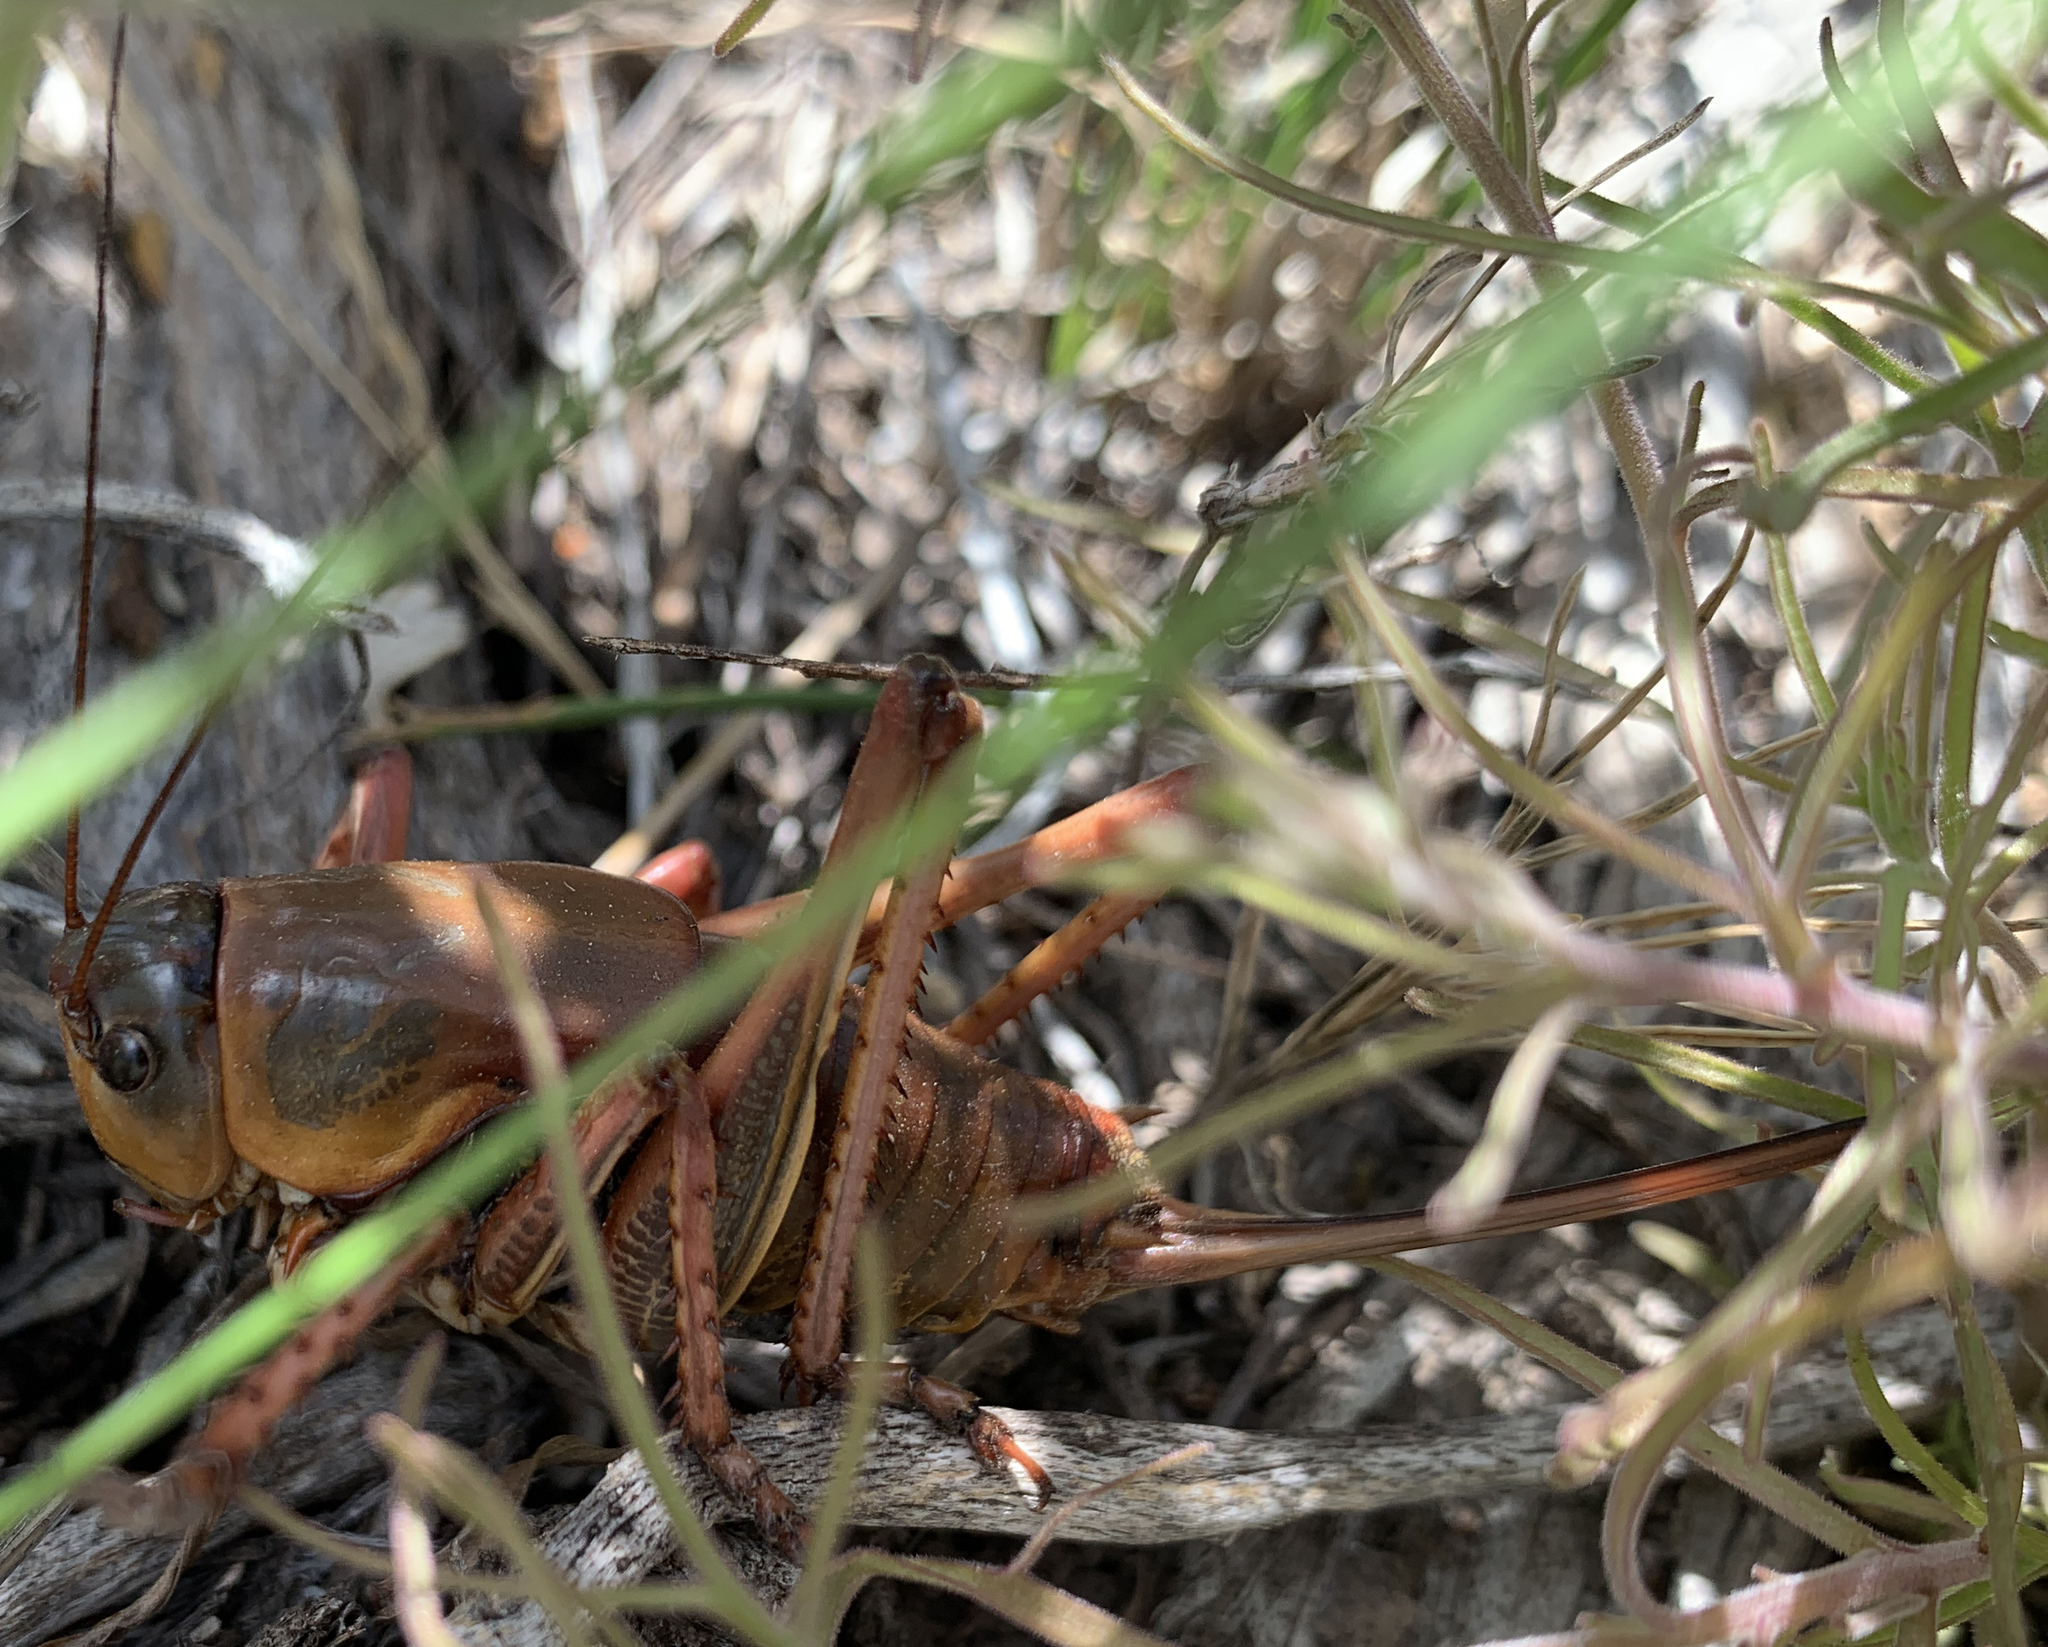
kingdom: Animalia
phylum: Arthropoda
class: Insecta
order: Orthoptera
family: Tettigoniidae
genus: Anabrus
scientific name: Anabrus simplex
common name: Mormon cricket
